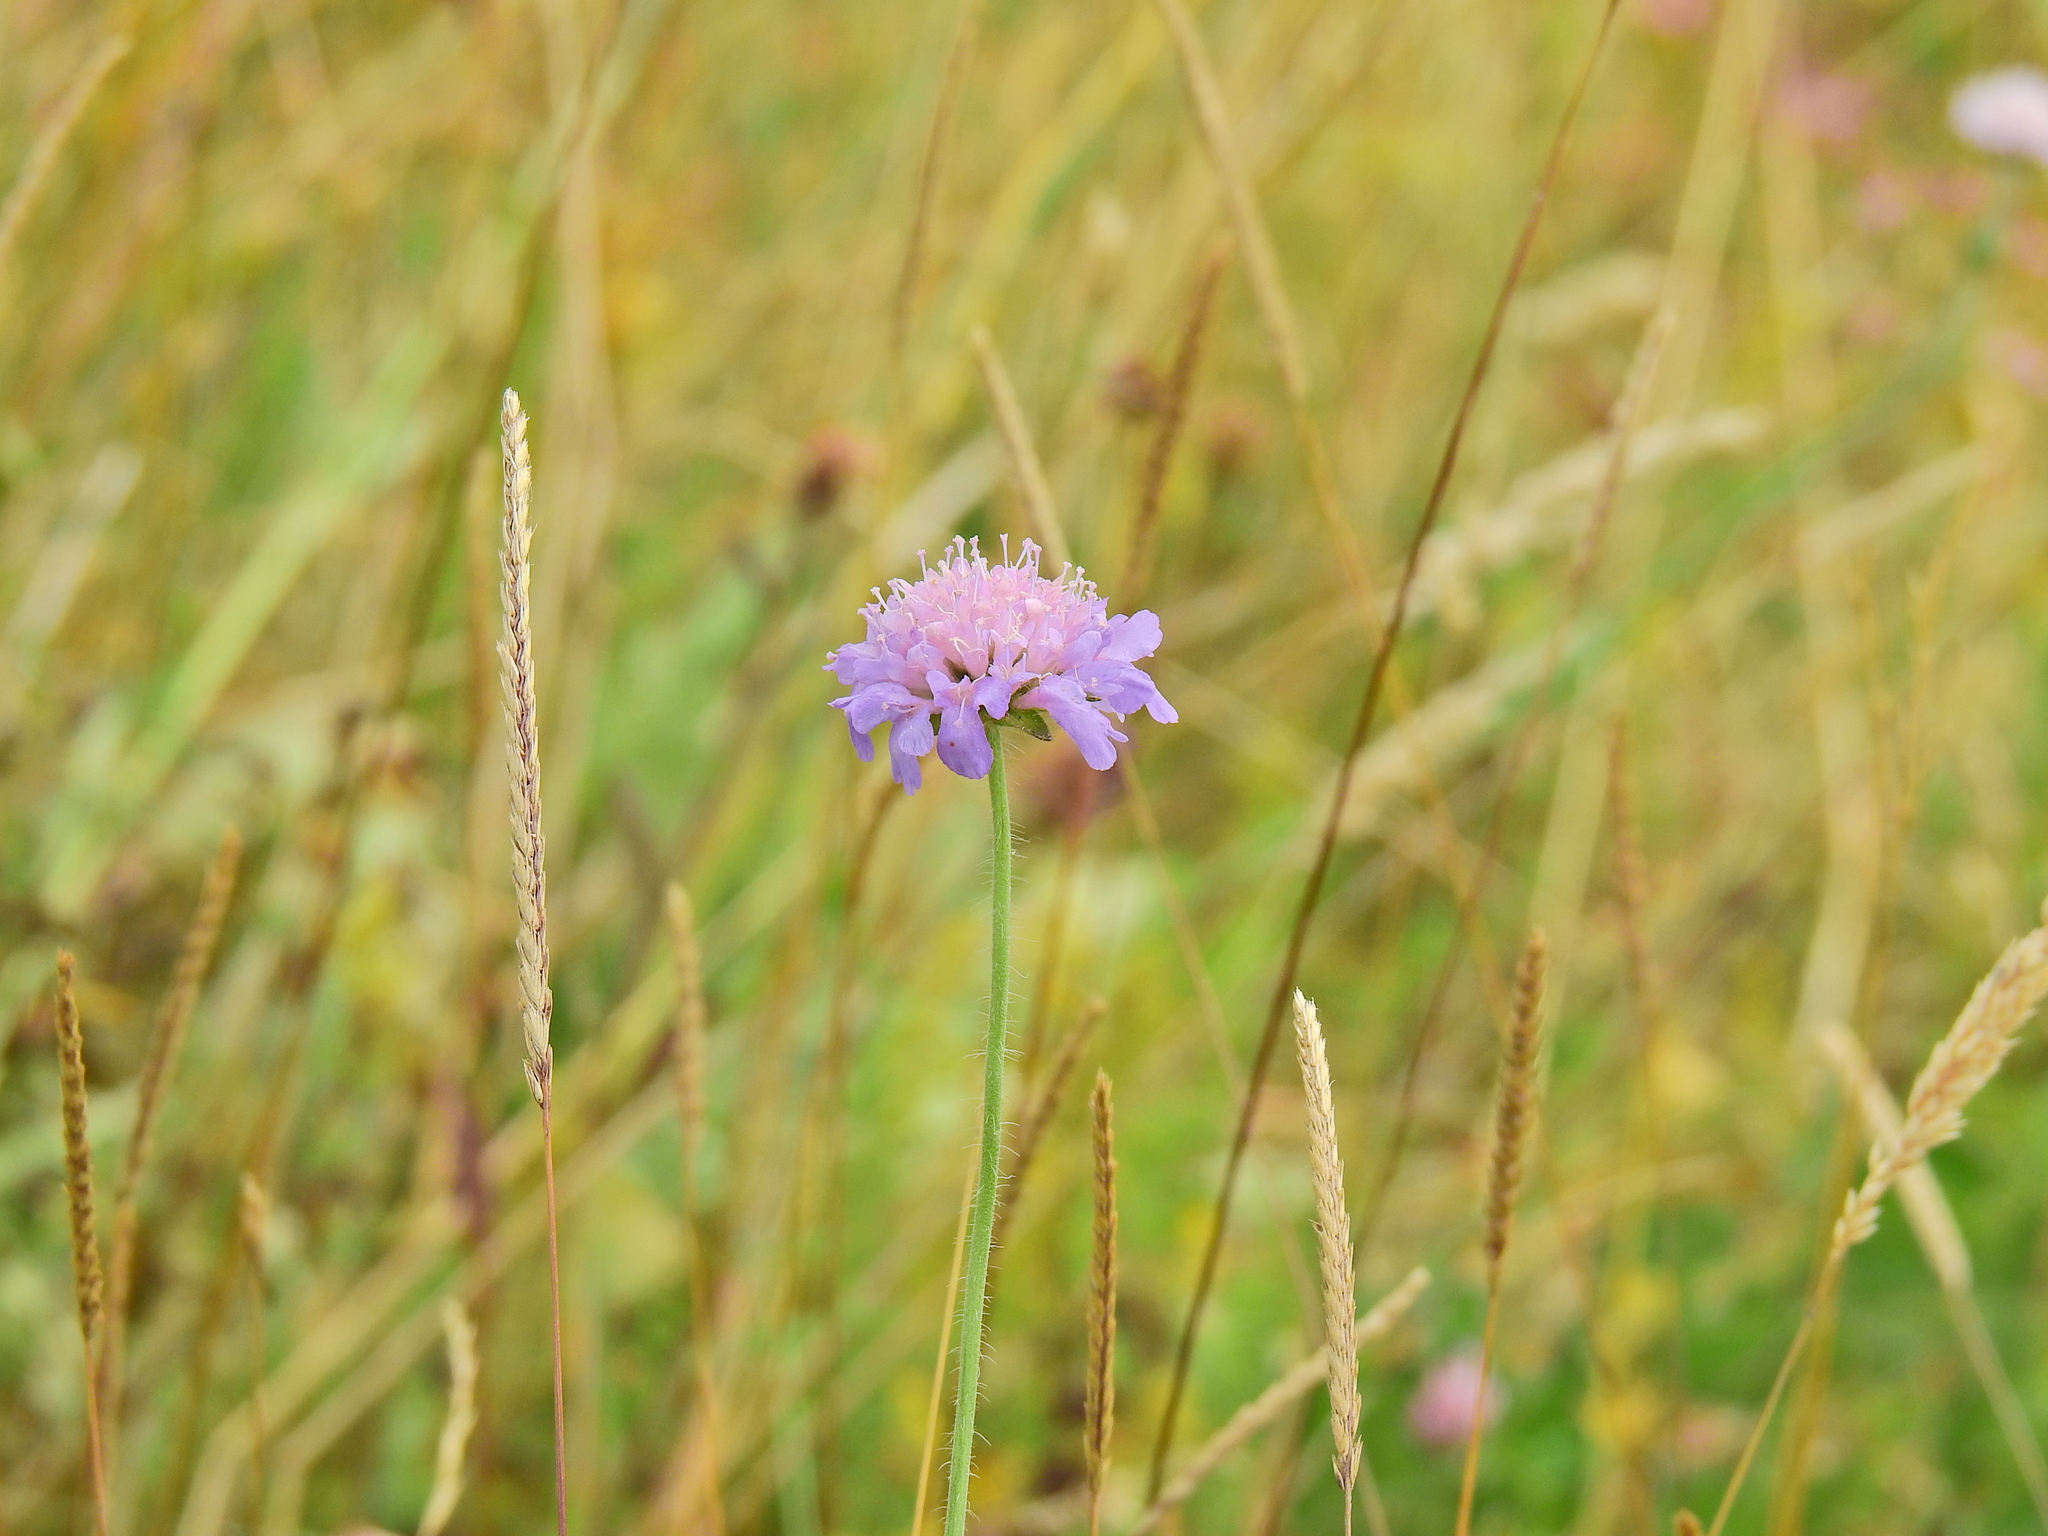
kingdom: Plantae
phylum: Tracheophyta
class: Magnoliopsida
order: Dipsacales
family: Caprifoliaceae
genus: Knautia
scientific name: Knautia arvensis
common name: Field scabiosa
